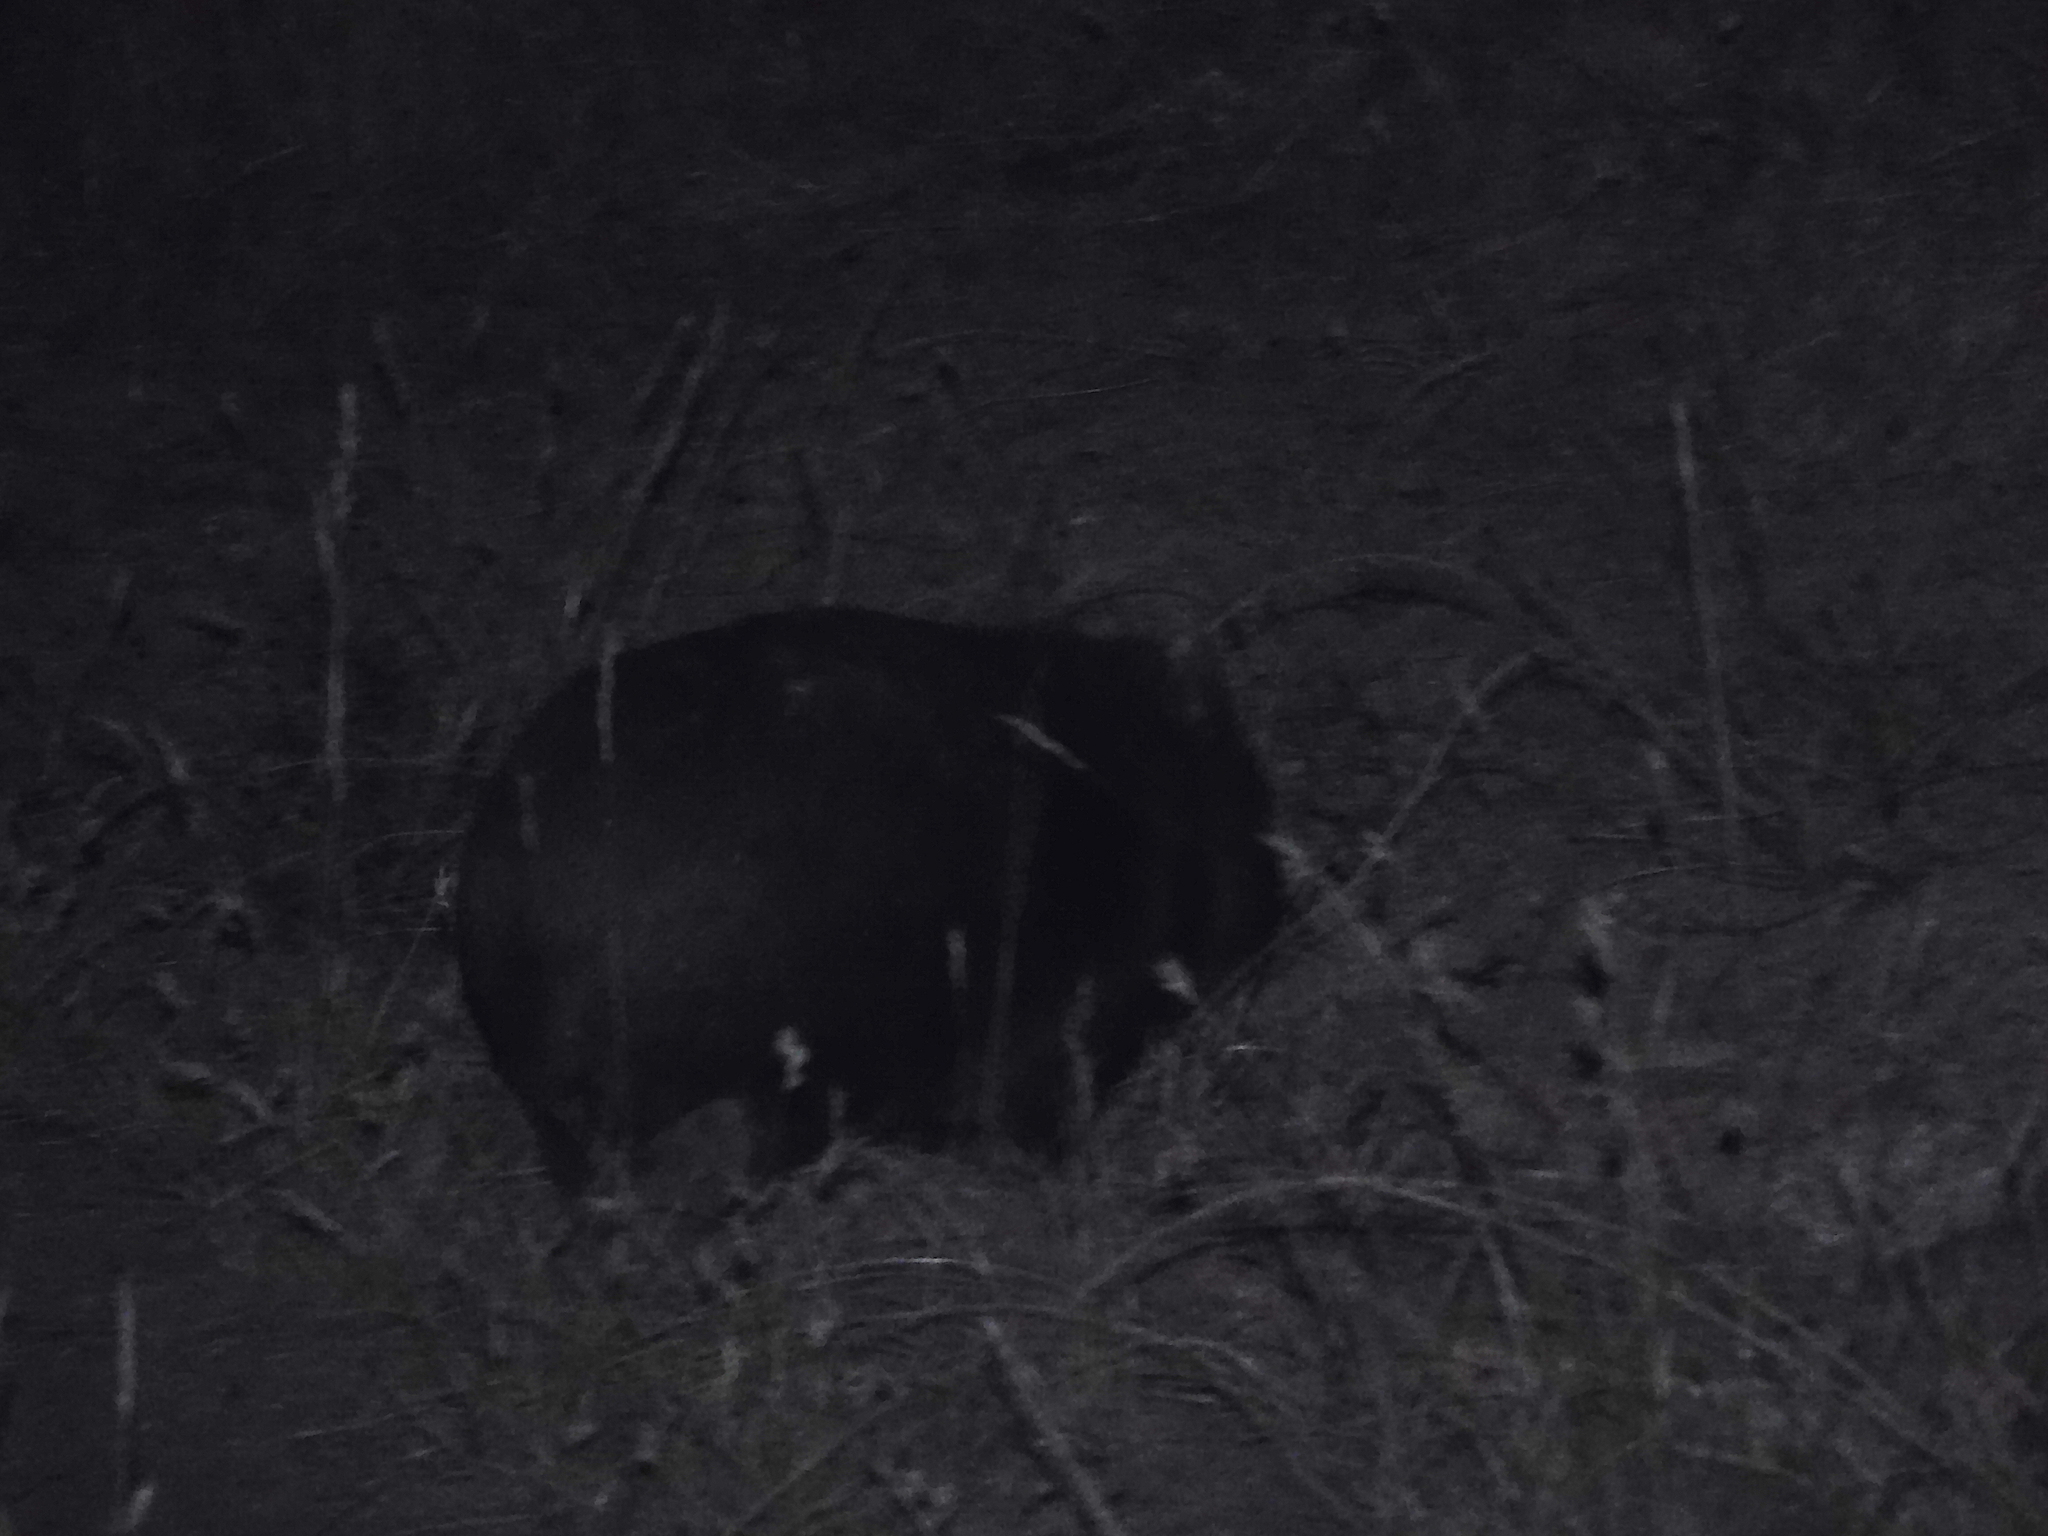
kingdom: Animalia
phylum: Chordata
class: Mammalia
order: Diprotodontia
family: Vombatidae
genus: Vombatus
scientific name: Vombatus ursinus
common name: Common wombat
